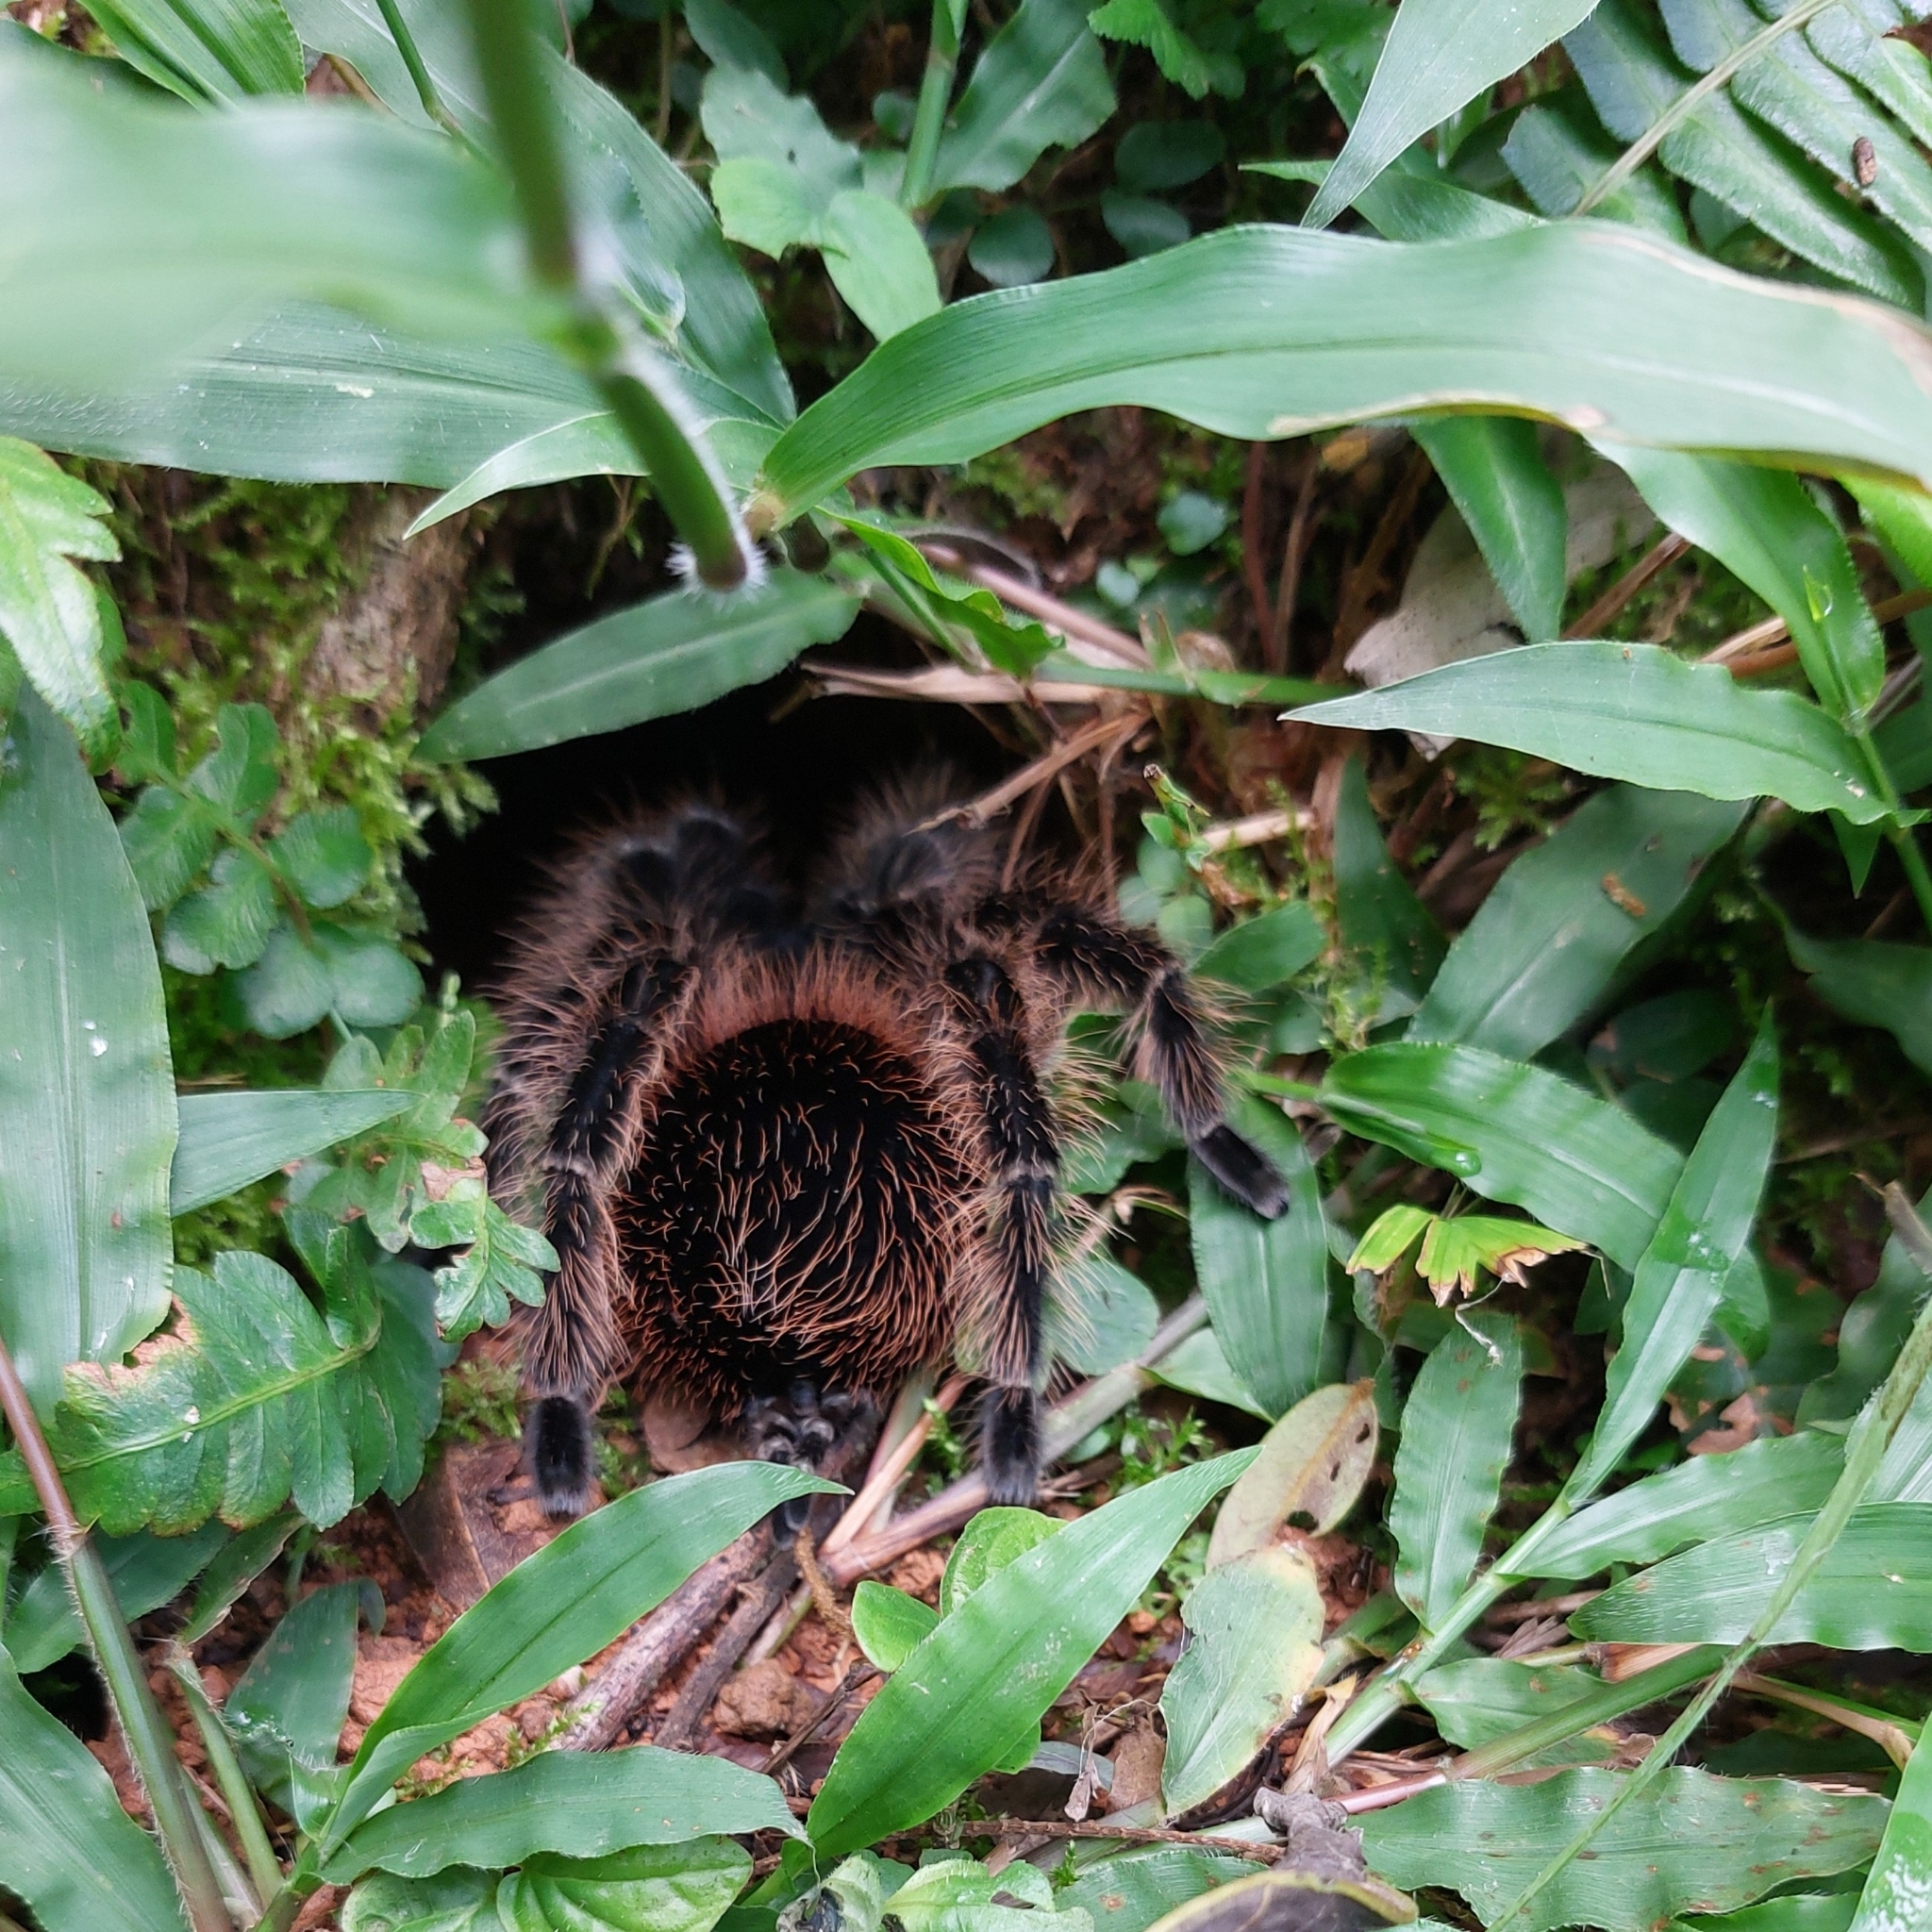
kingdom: Animalia
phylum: Arthropoda
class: Arachnida
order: Araneae
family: Theraphosidae
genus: Lasiodora
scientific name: Lasiodora
